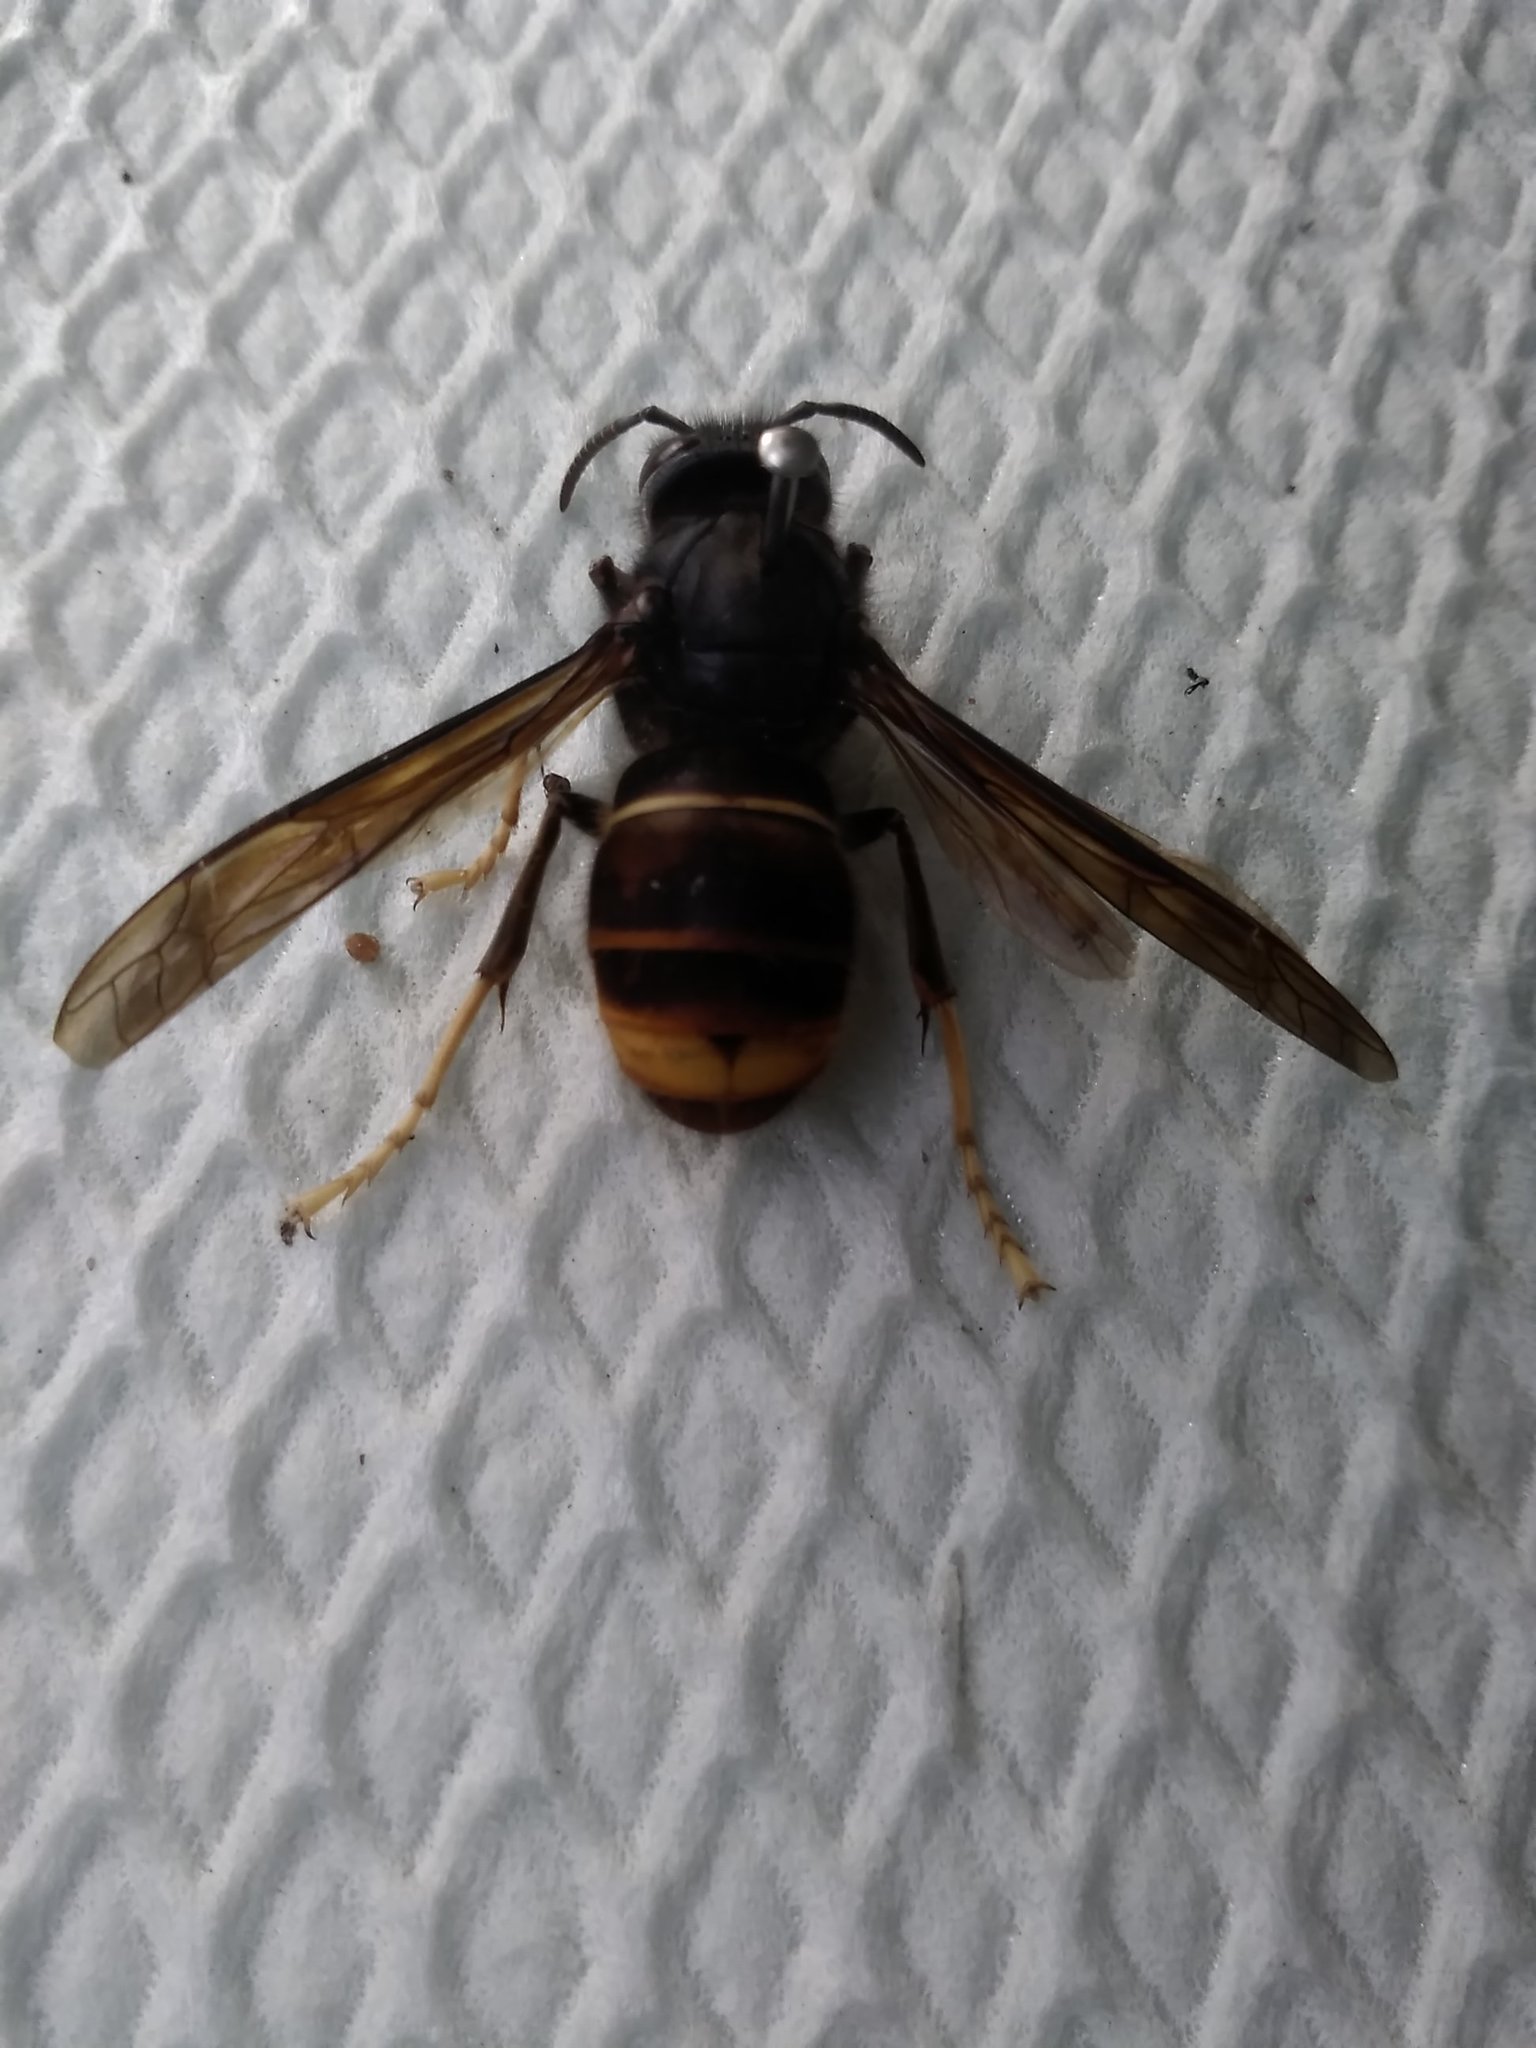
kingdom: Animalia
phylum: Arthropoda
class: Insecta
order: Hymenoptera
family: Vespidae
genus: Vespa
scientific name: Vespa velutina
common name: Asian hornet
